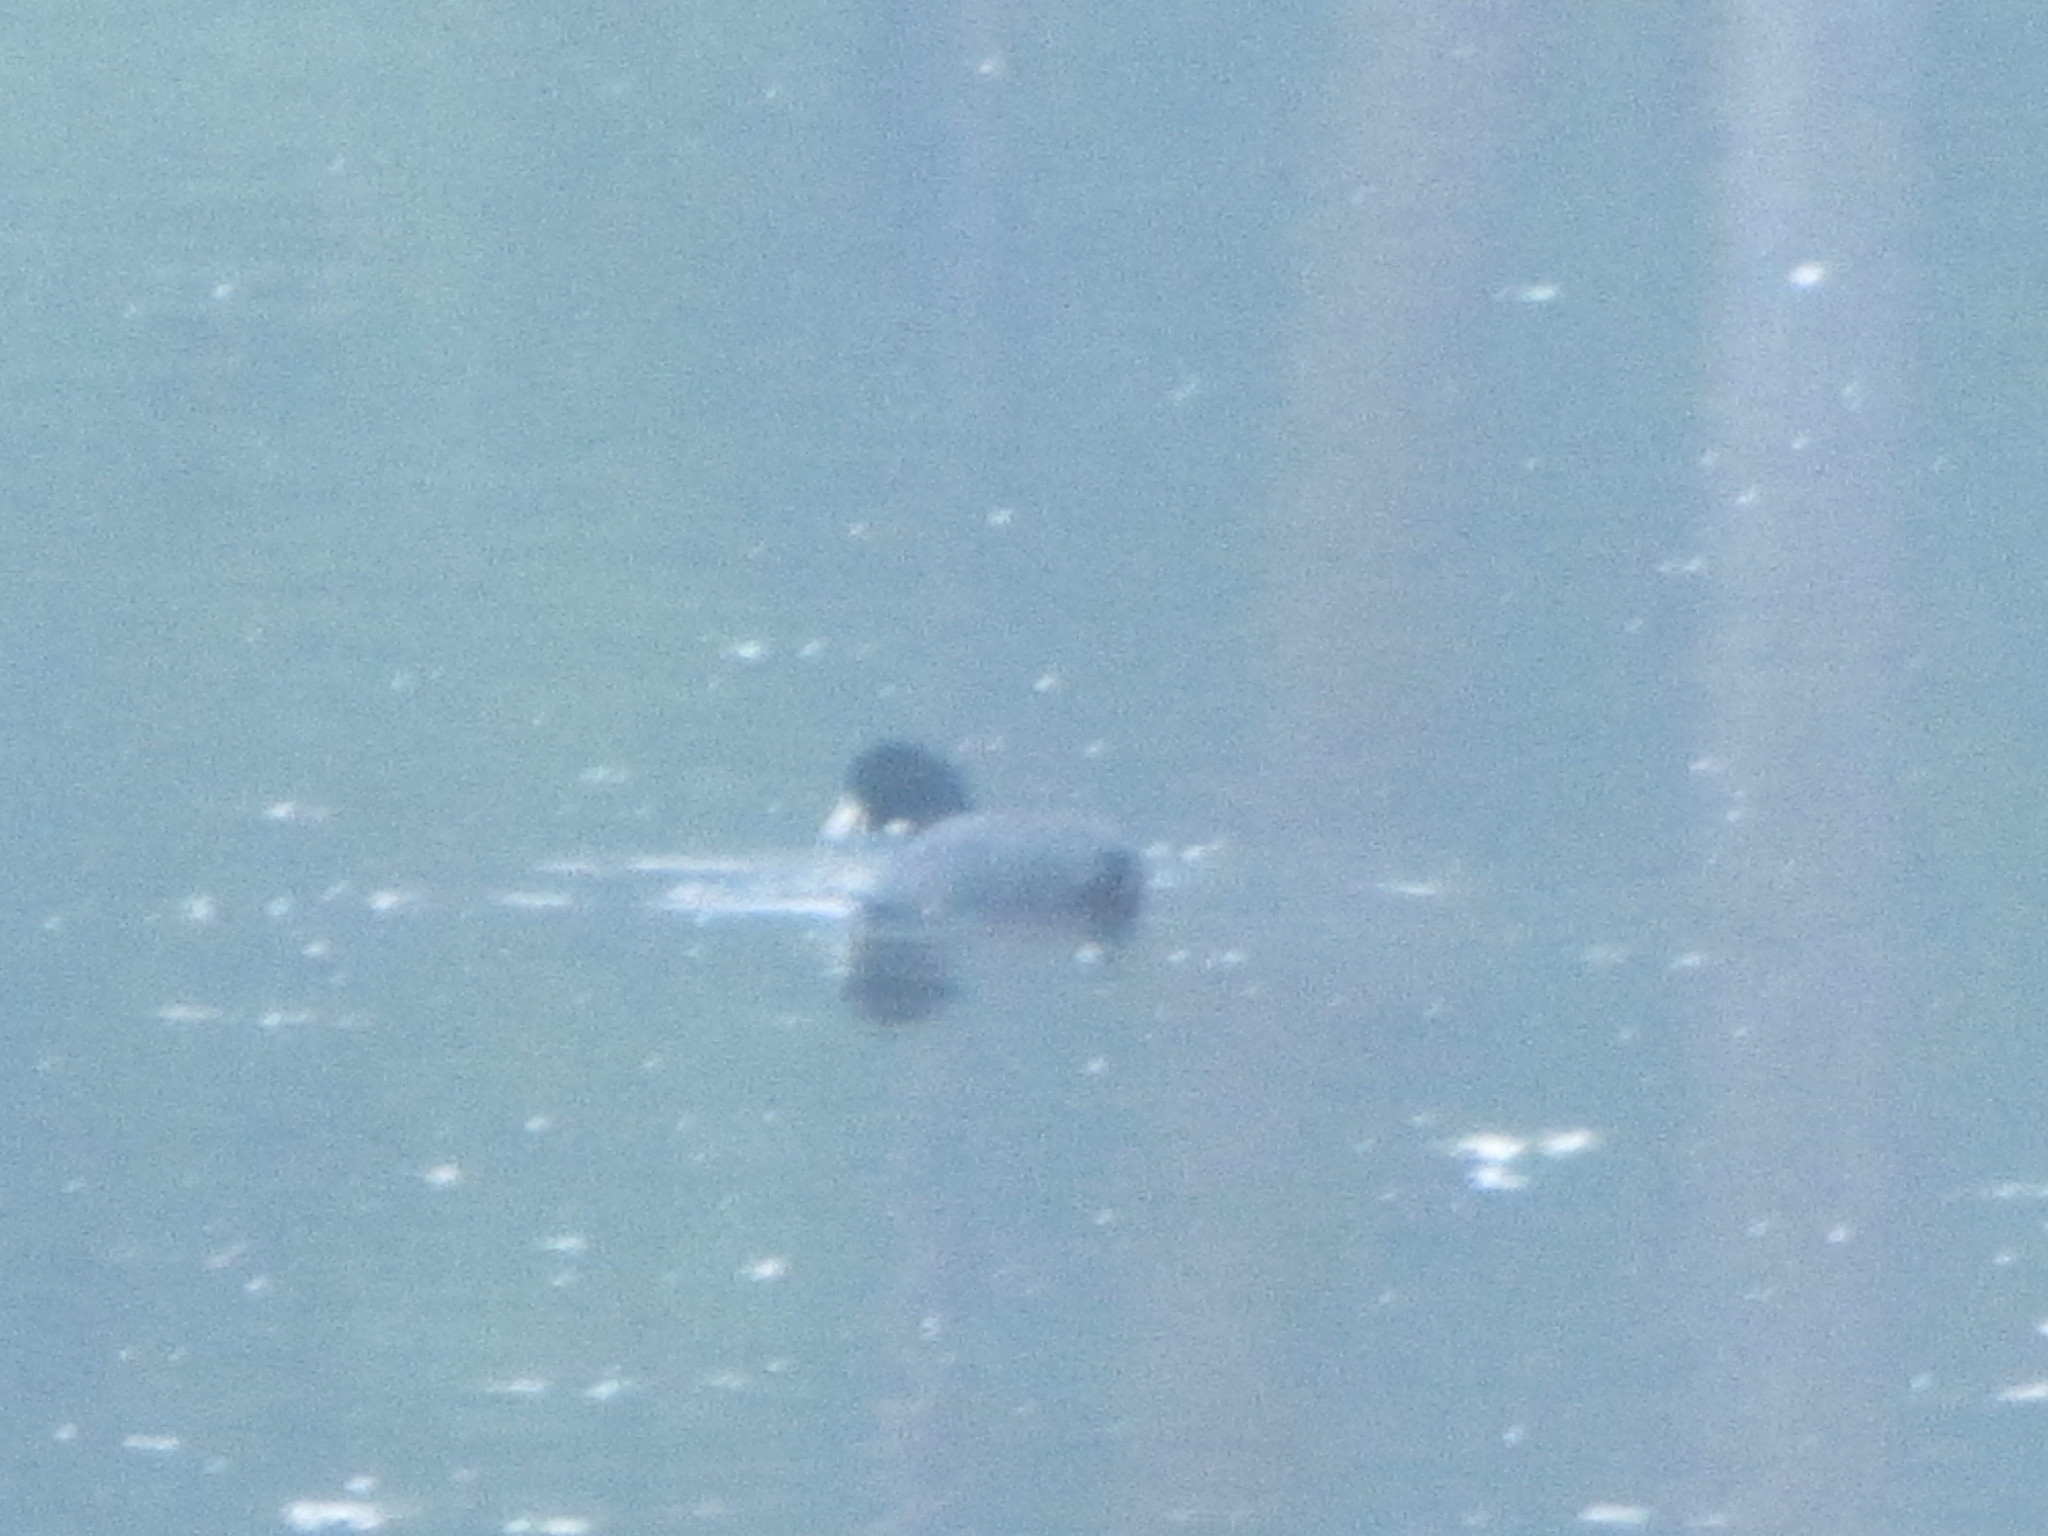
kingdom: Animalia
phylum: Chordata
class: Aves
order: Gruiformes
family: Rallidae
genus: Fulica
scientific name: Fulica americana
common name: American coot
